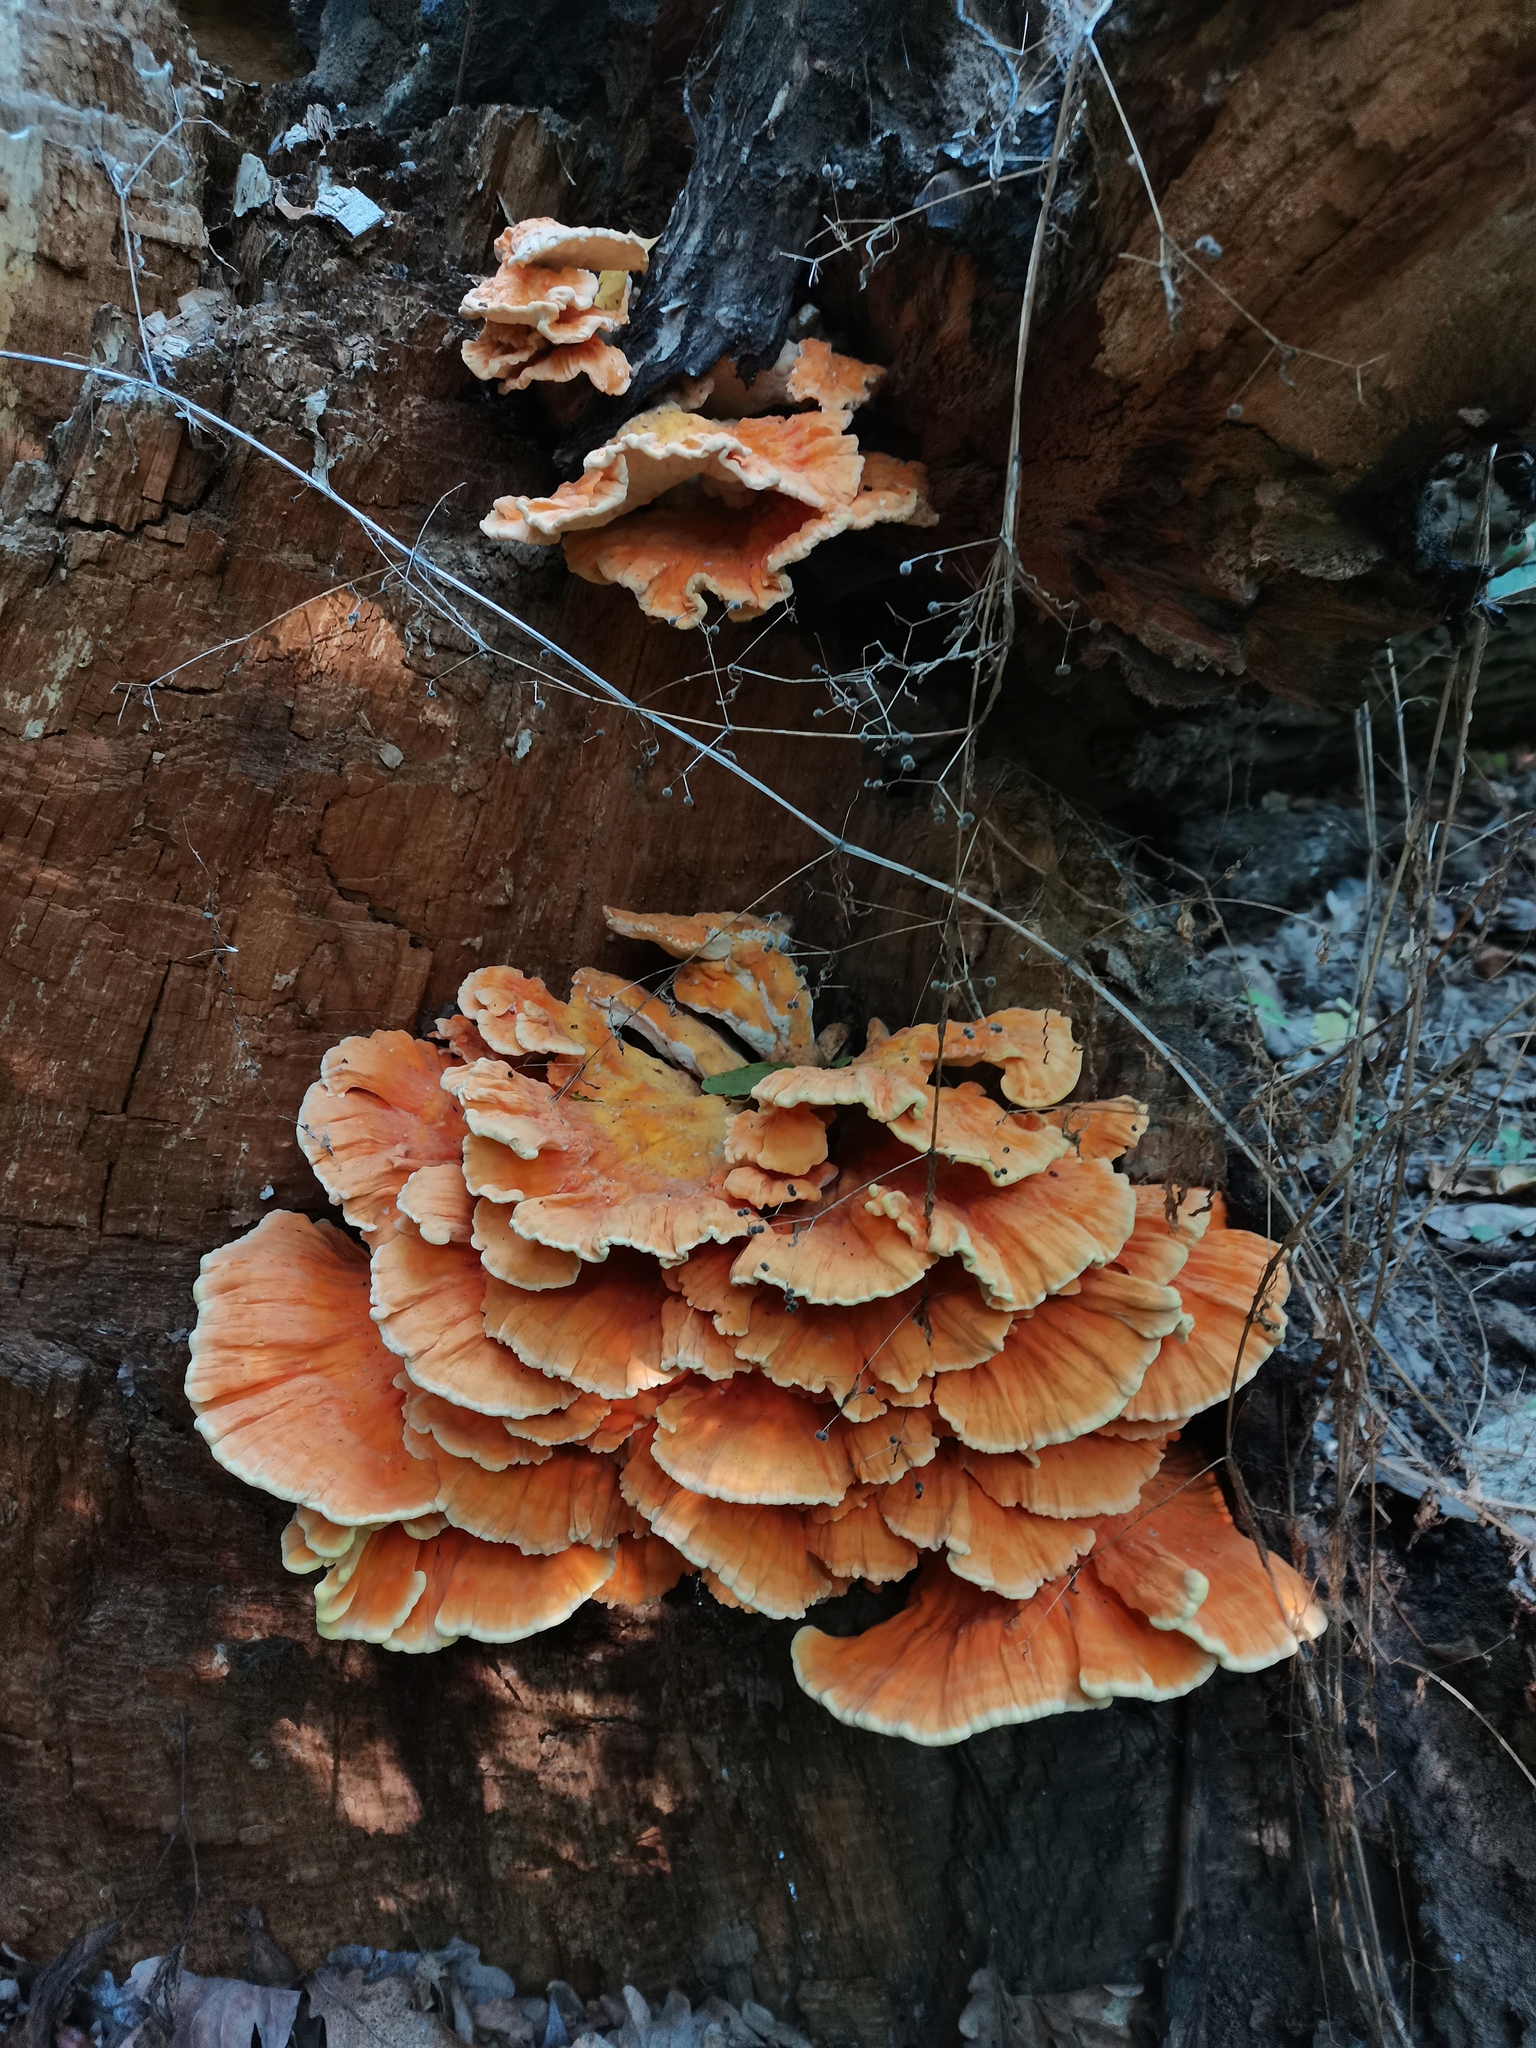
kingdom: Fungi
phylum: Basidiomycota
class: Agaricomycetes
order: Polyporales
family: Laetiporaceae
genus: Laetiporus
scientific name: Laetiporus sulphureus
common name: Chicken of the woods
